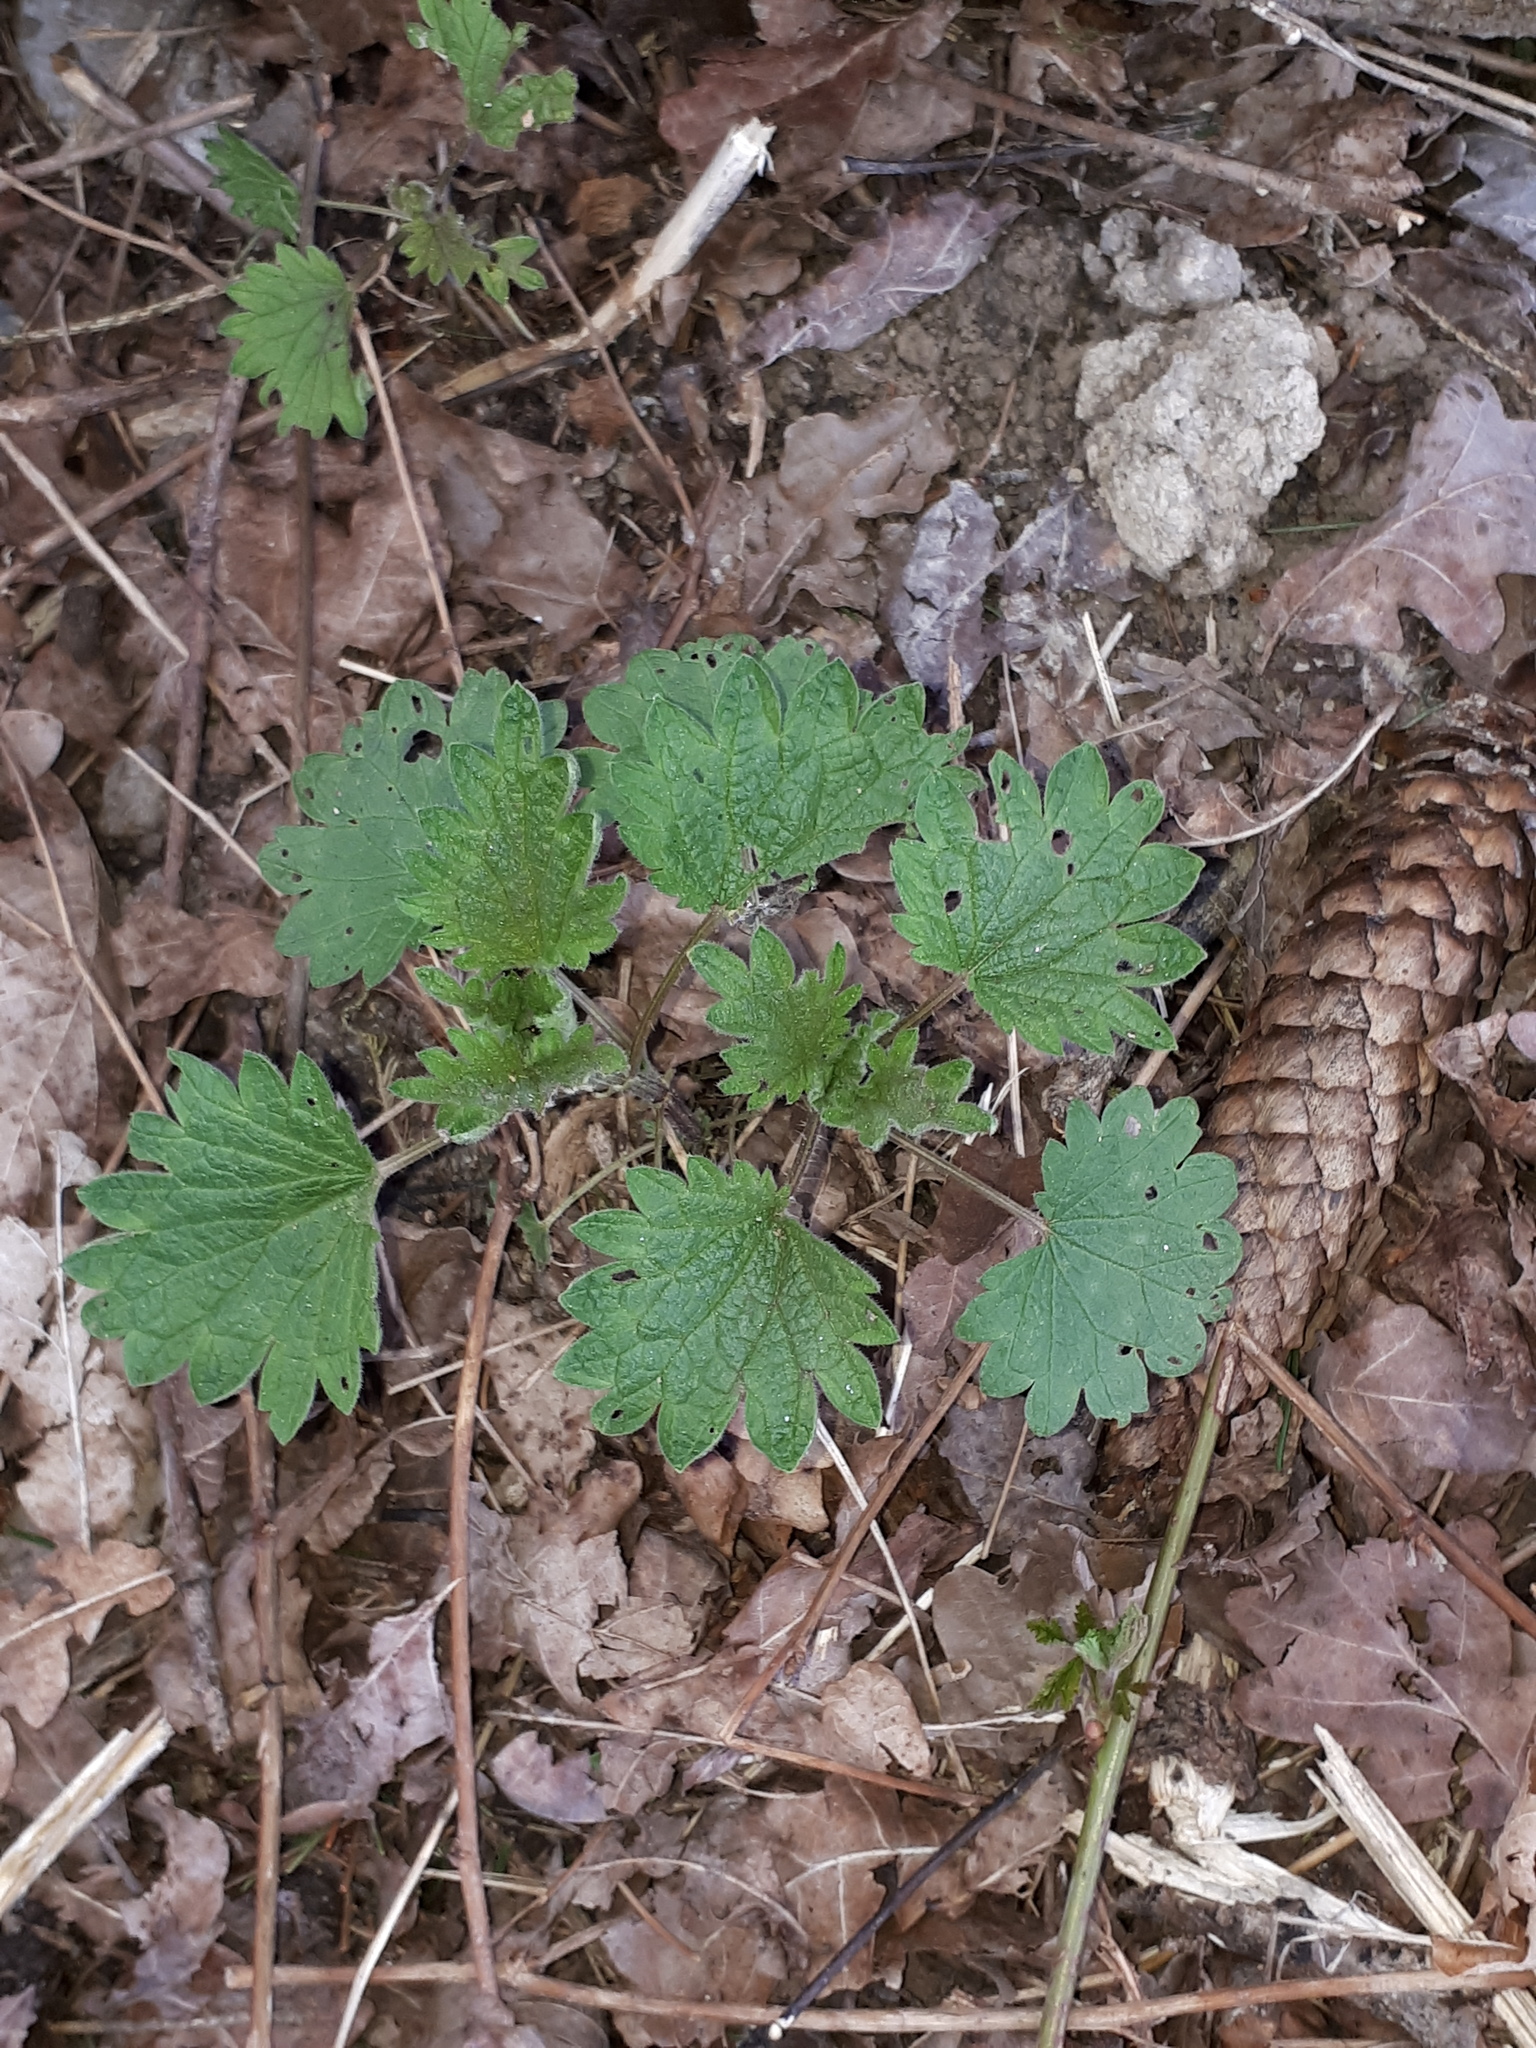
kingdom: Plantae
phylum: Tracheophyta
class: Magnoliopsida
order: Rosales
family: Urticaceae
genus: Urtica
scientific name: Urtica dioica
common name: Common nettle
